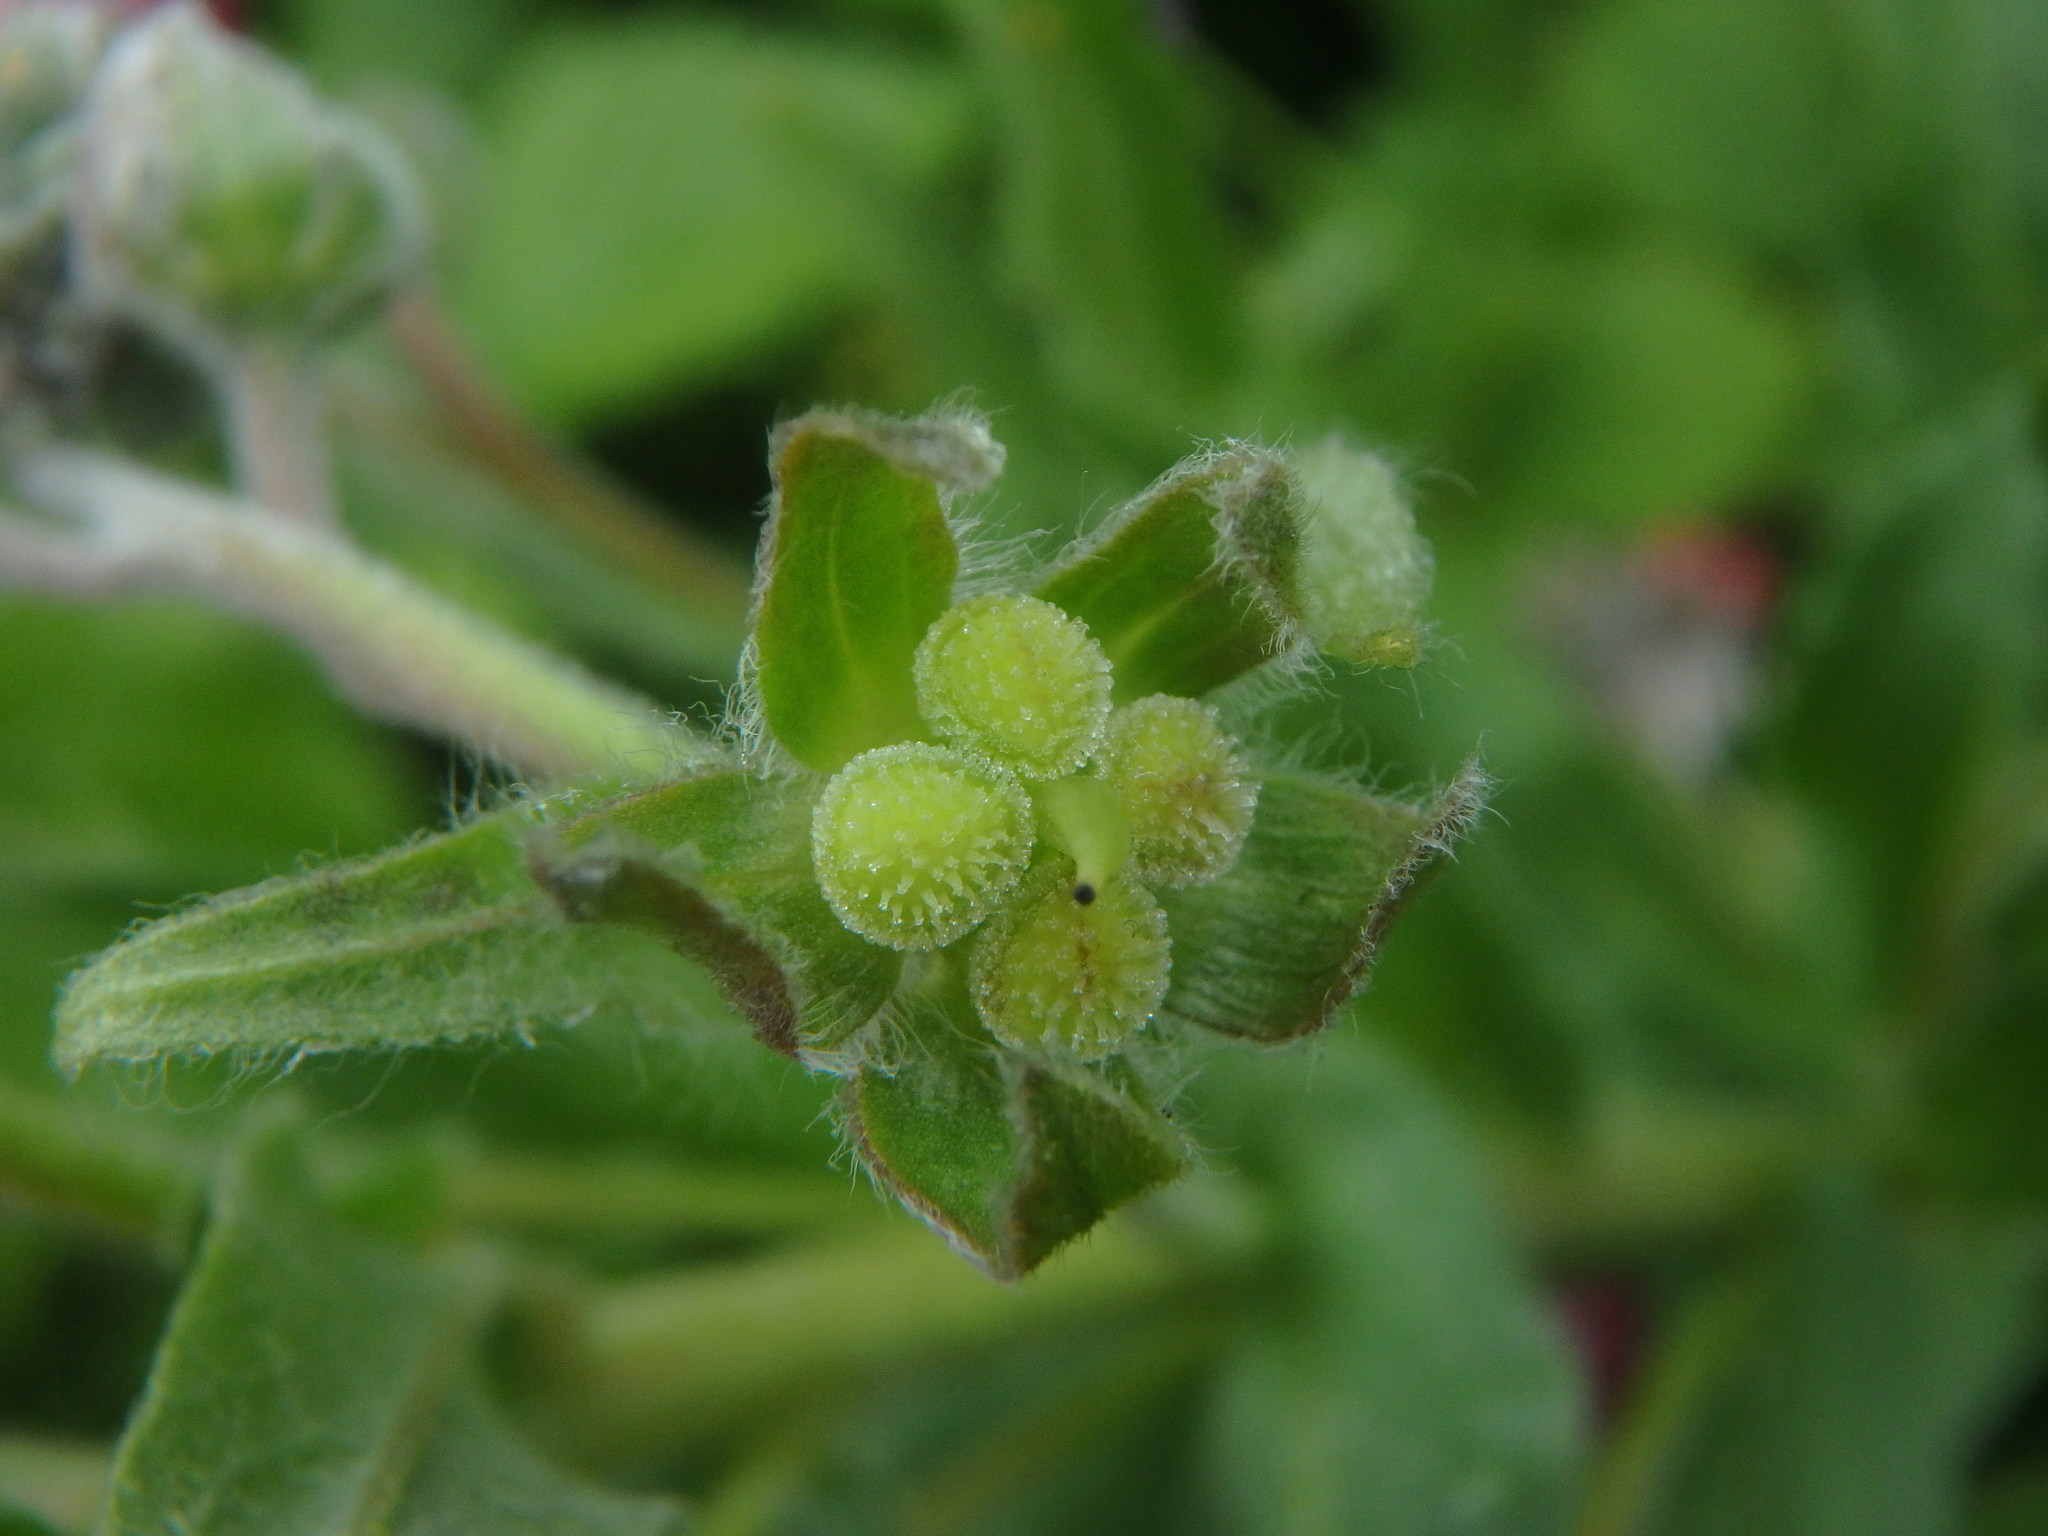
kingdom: Plantae
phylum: Tracheophyta
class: Magnoliopsida
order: Boraginales
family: Boraginaceae
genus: Cynoglossum
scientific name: Cynoglossum officinale
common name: Hound's-tongue
